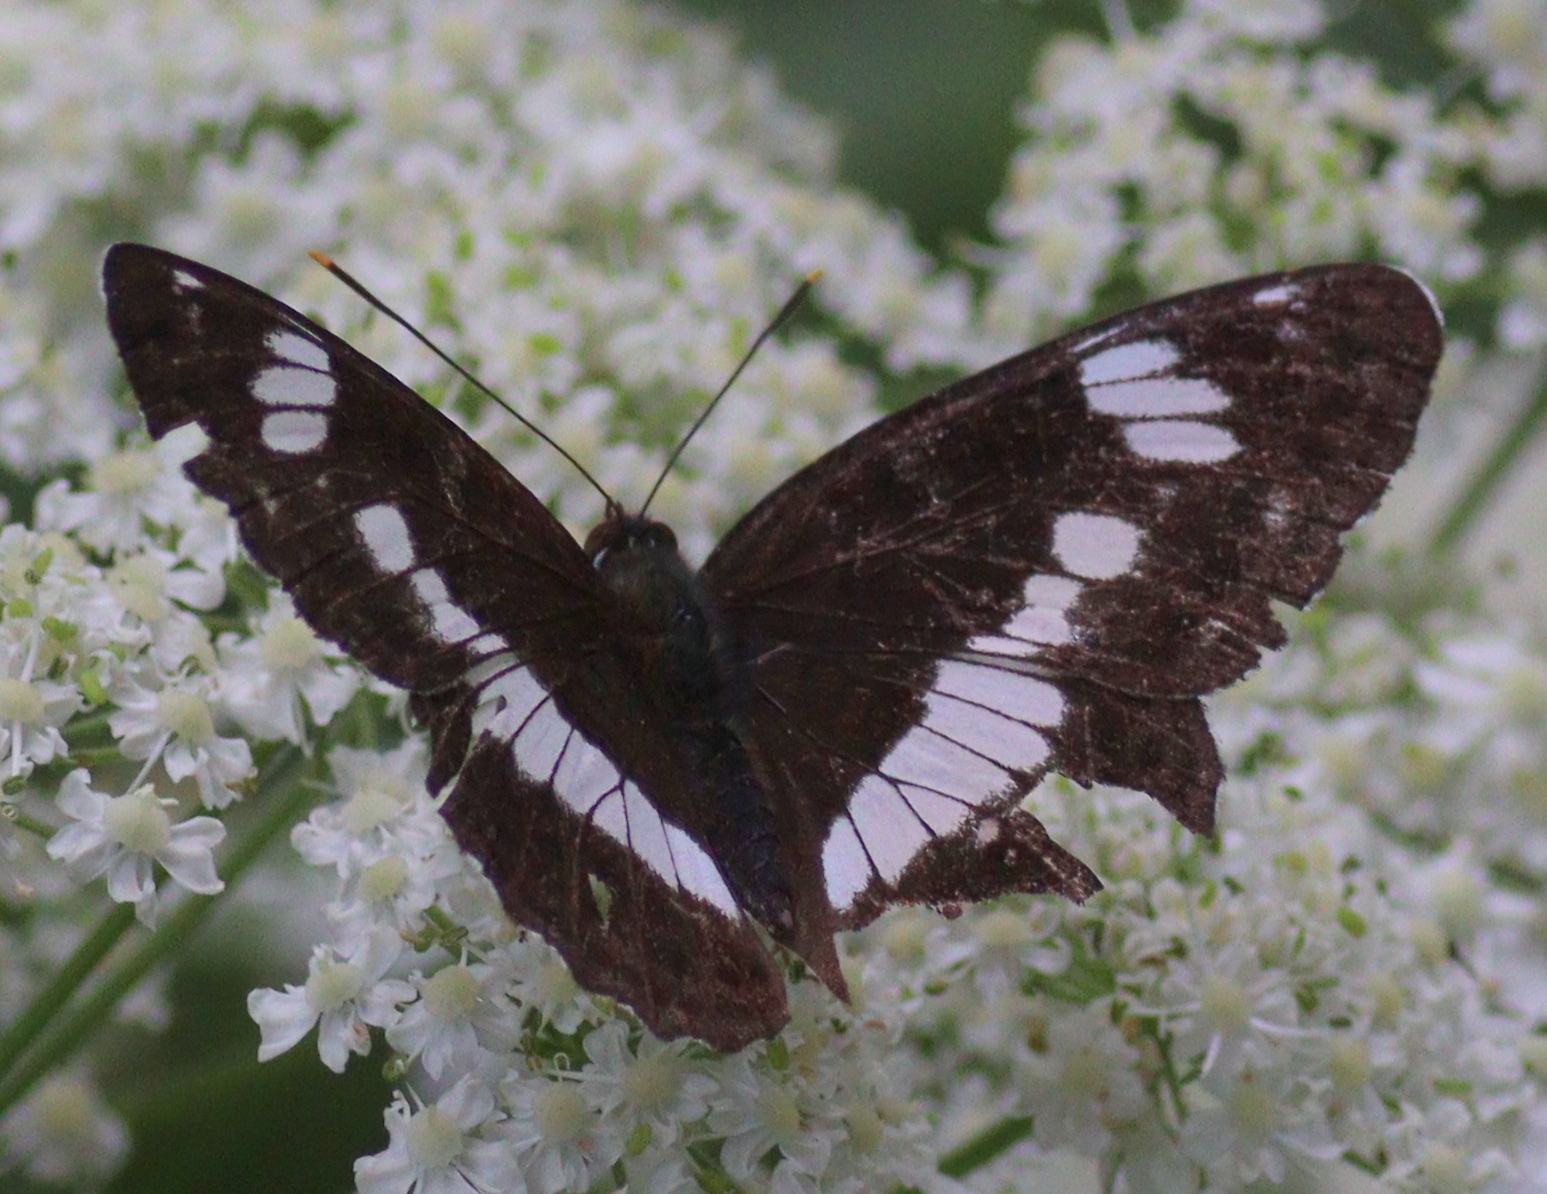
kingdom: Animalia
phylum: Arthropoda
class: Insecta
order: Lepidoptera
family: Nymphalidae
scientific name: Nymphalidae
